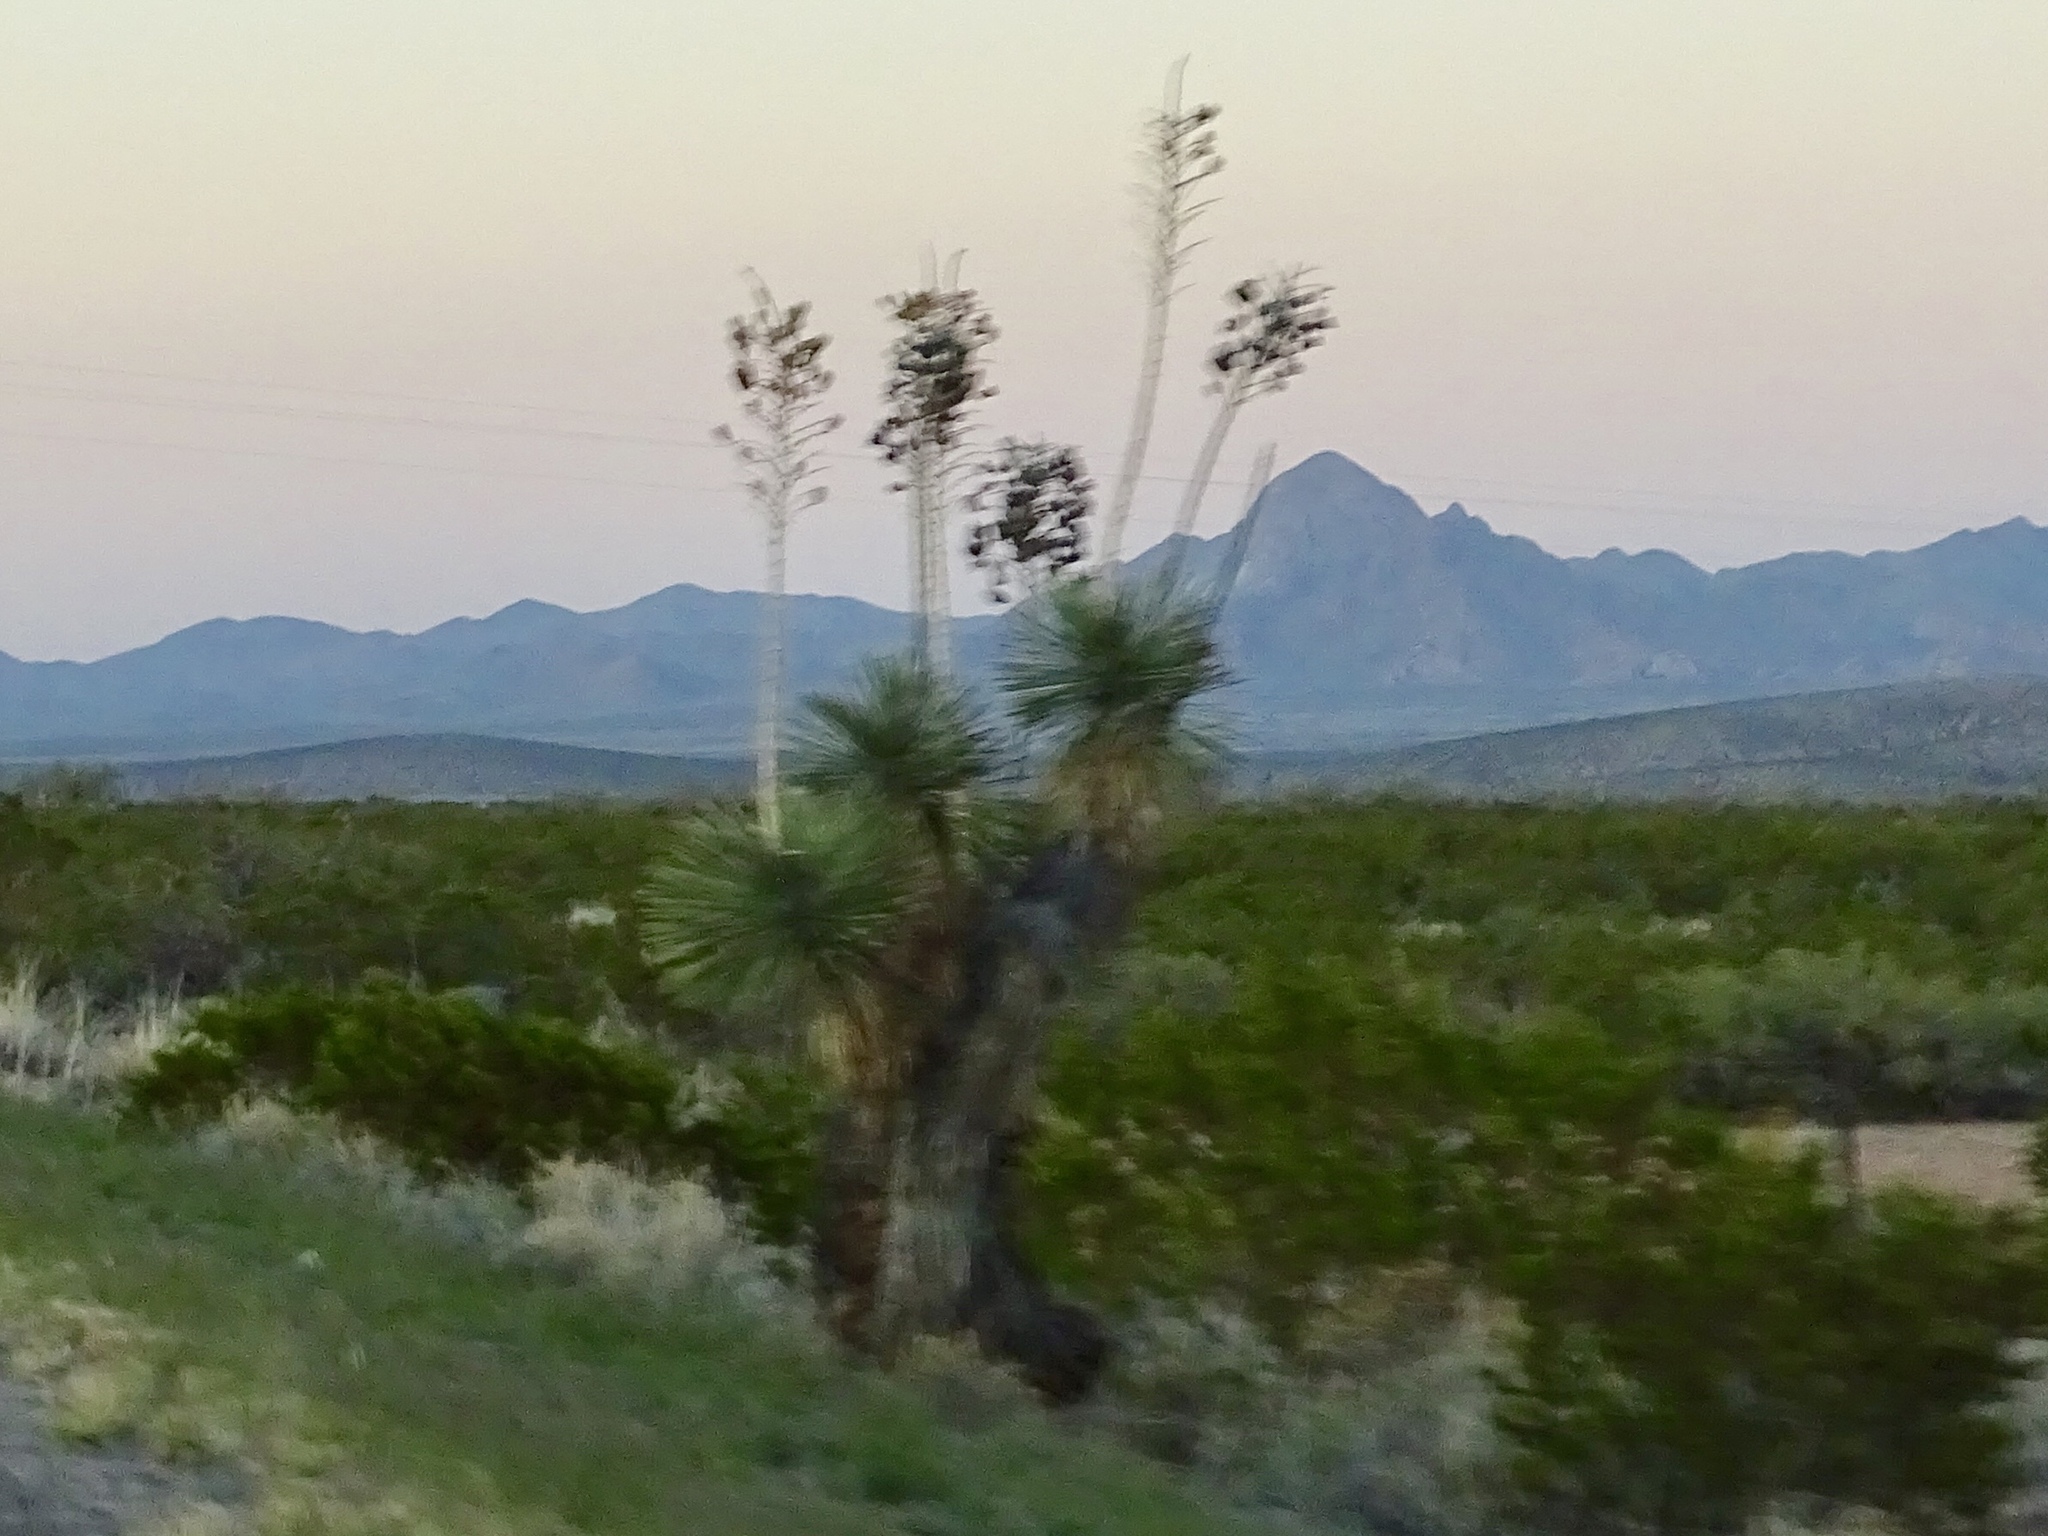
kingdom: Plantae
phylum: Tracheophyta
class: Liliopsida
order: Asparagales
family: Asparagaceae
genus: Yucca
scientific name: Yucca elata
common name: Palmella
